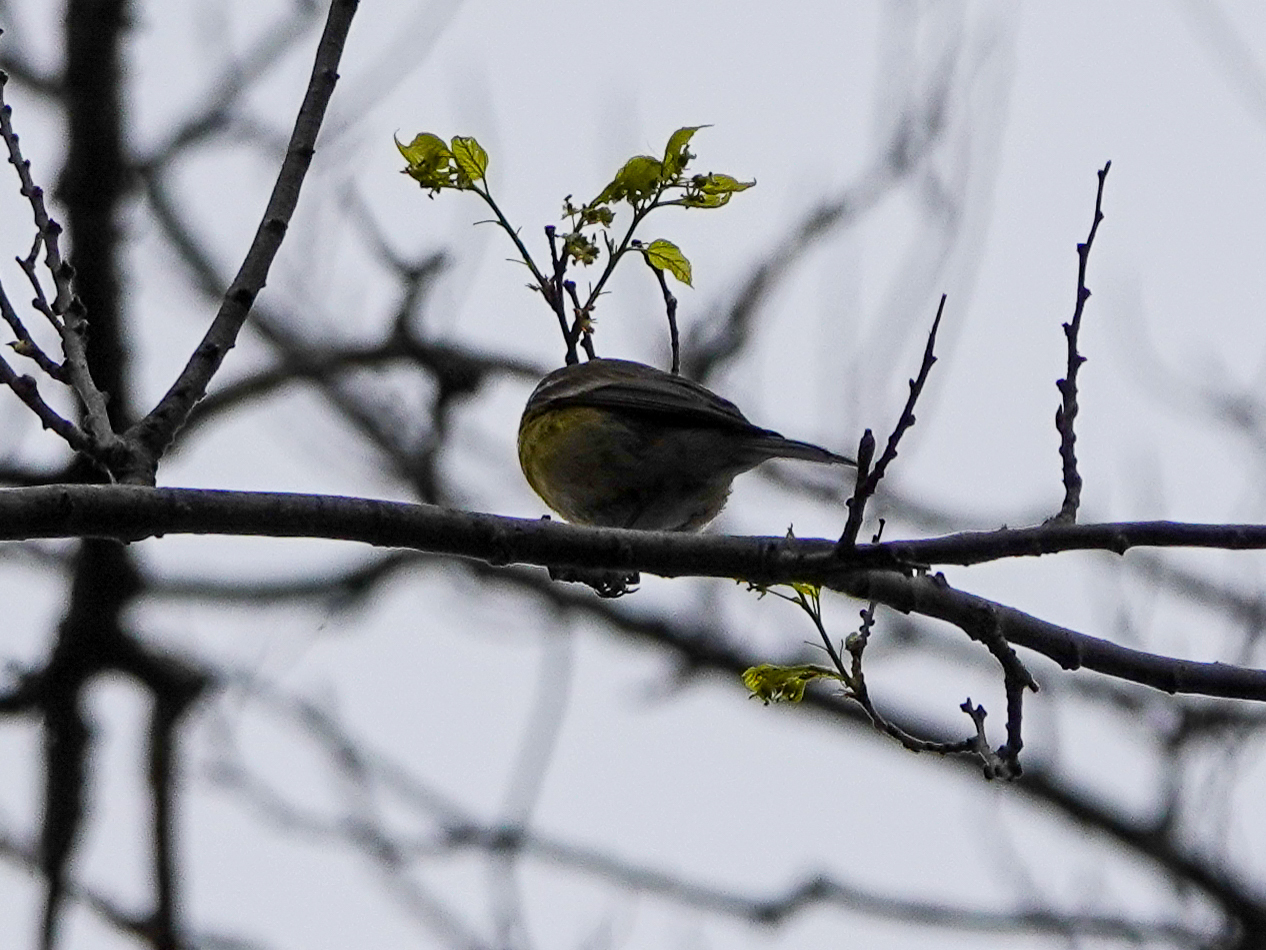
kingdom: Animalia
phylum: Chordata
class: Aves
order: Passeriformes
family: Parulidae
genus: Setophaga
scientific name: Setophaga pinus
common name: Pine warbler
